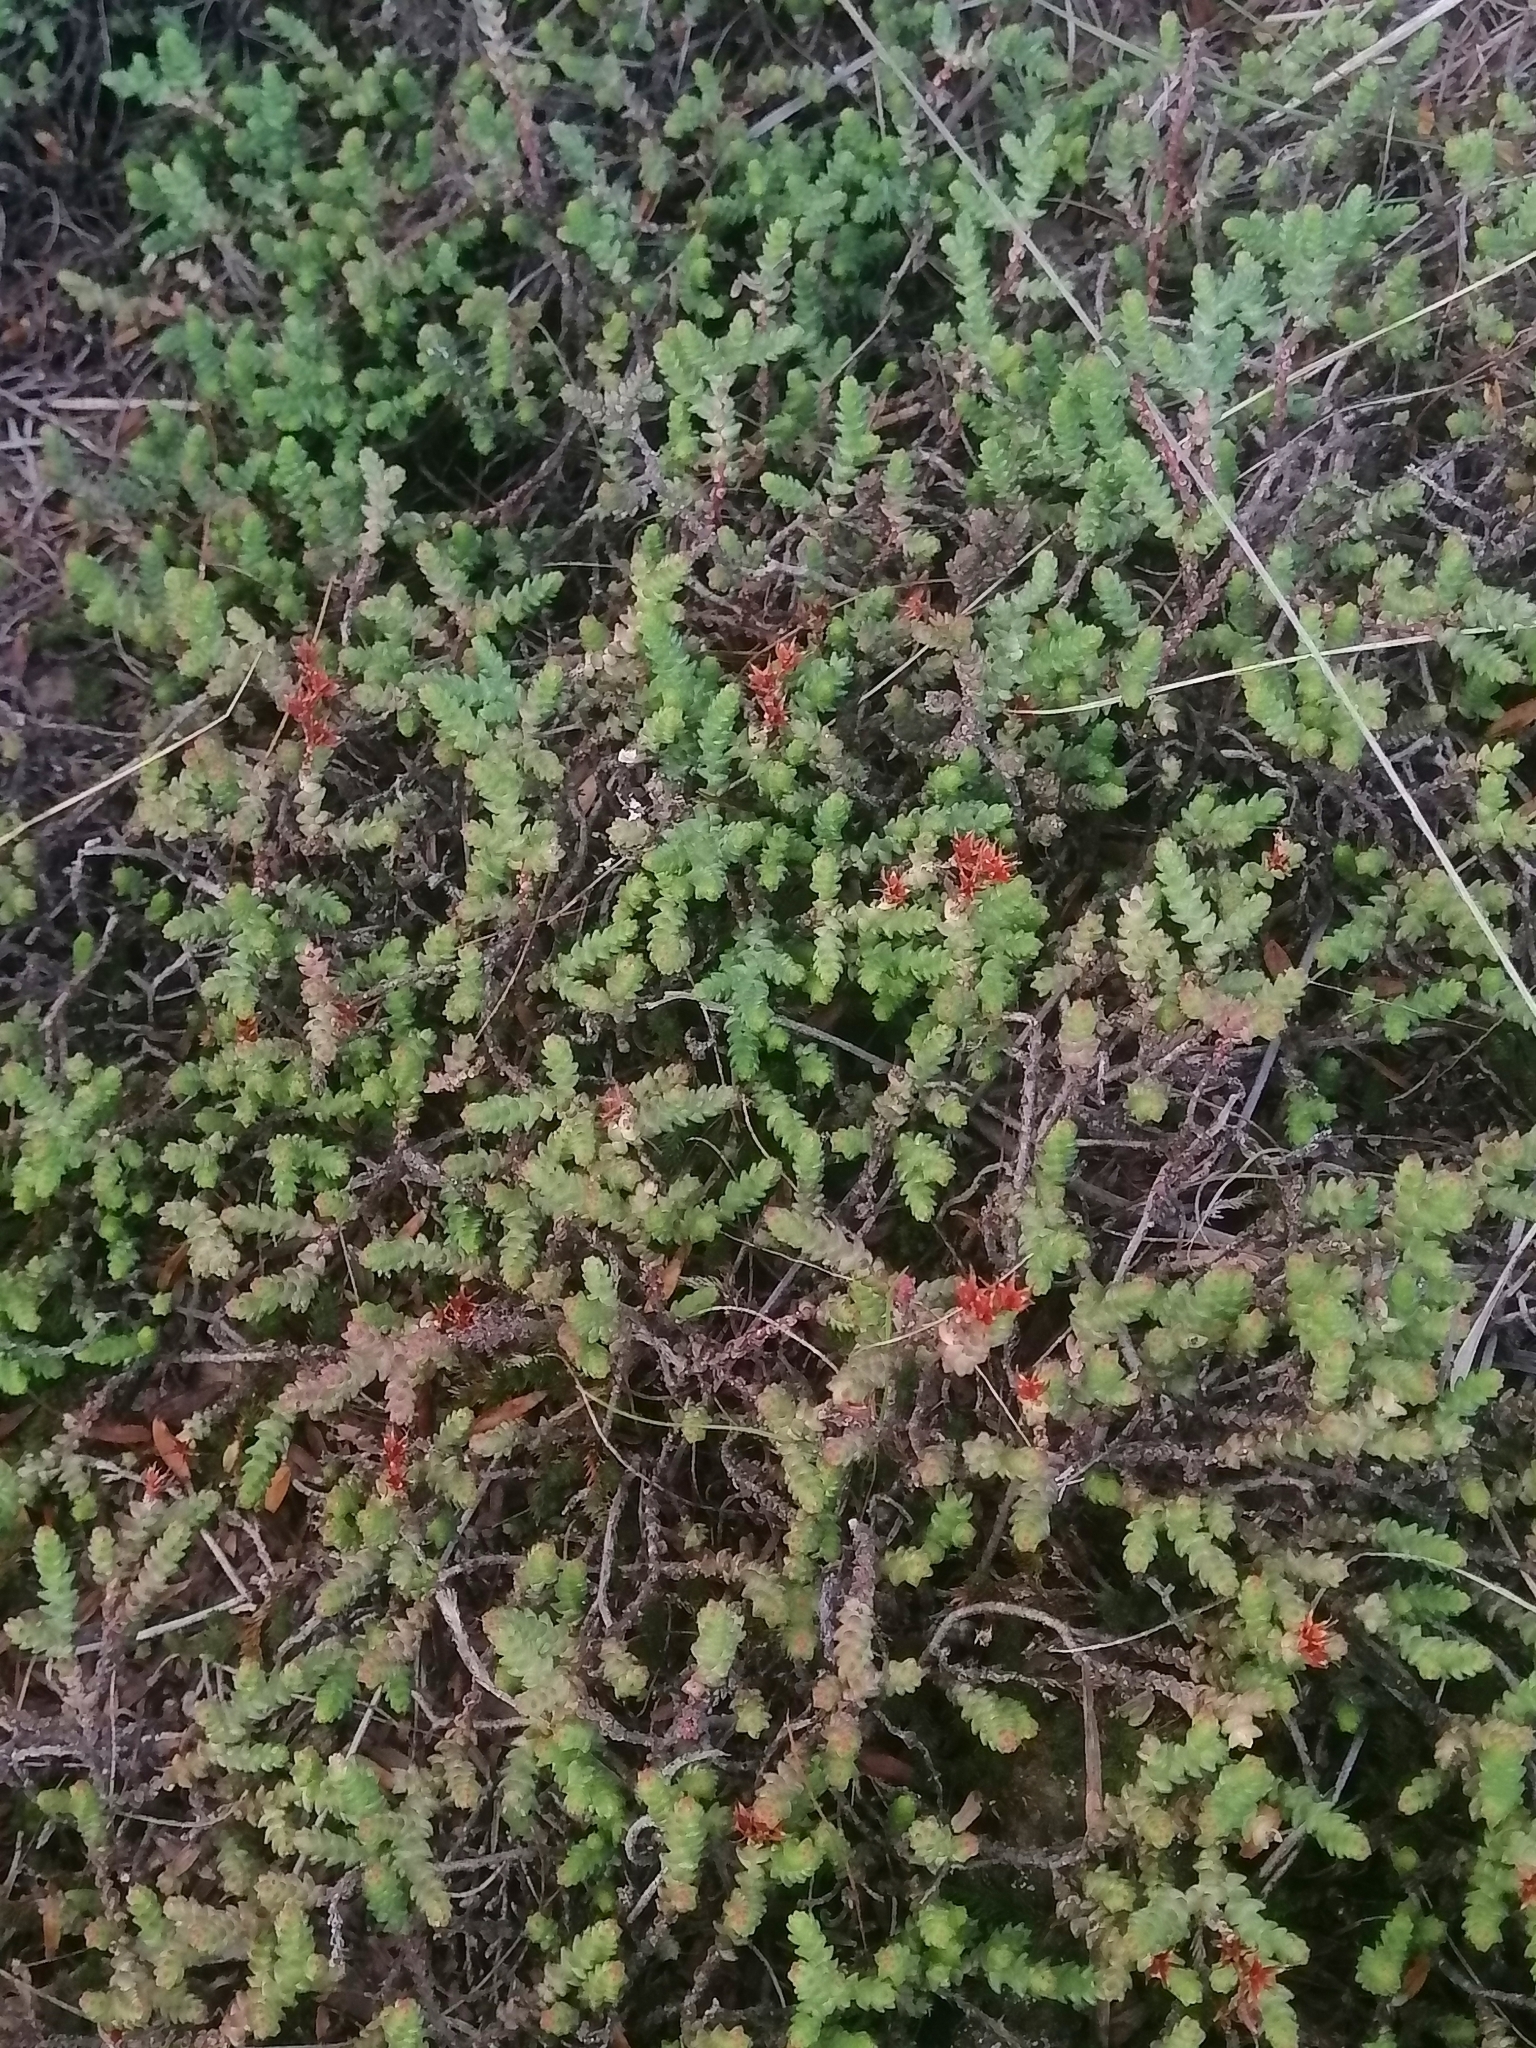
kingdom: Plantae
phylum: Tracheophyta
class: Magnoliopsida
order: Saxifragales
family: Crassulaceae
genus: Sedum
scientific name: Sedum moranense
